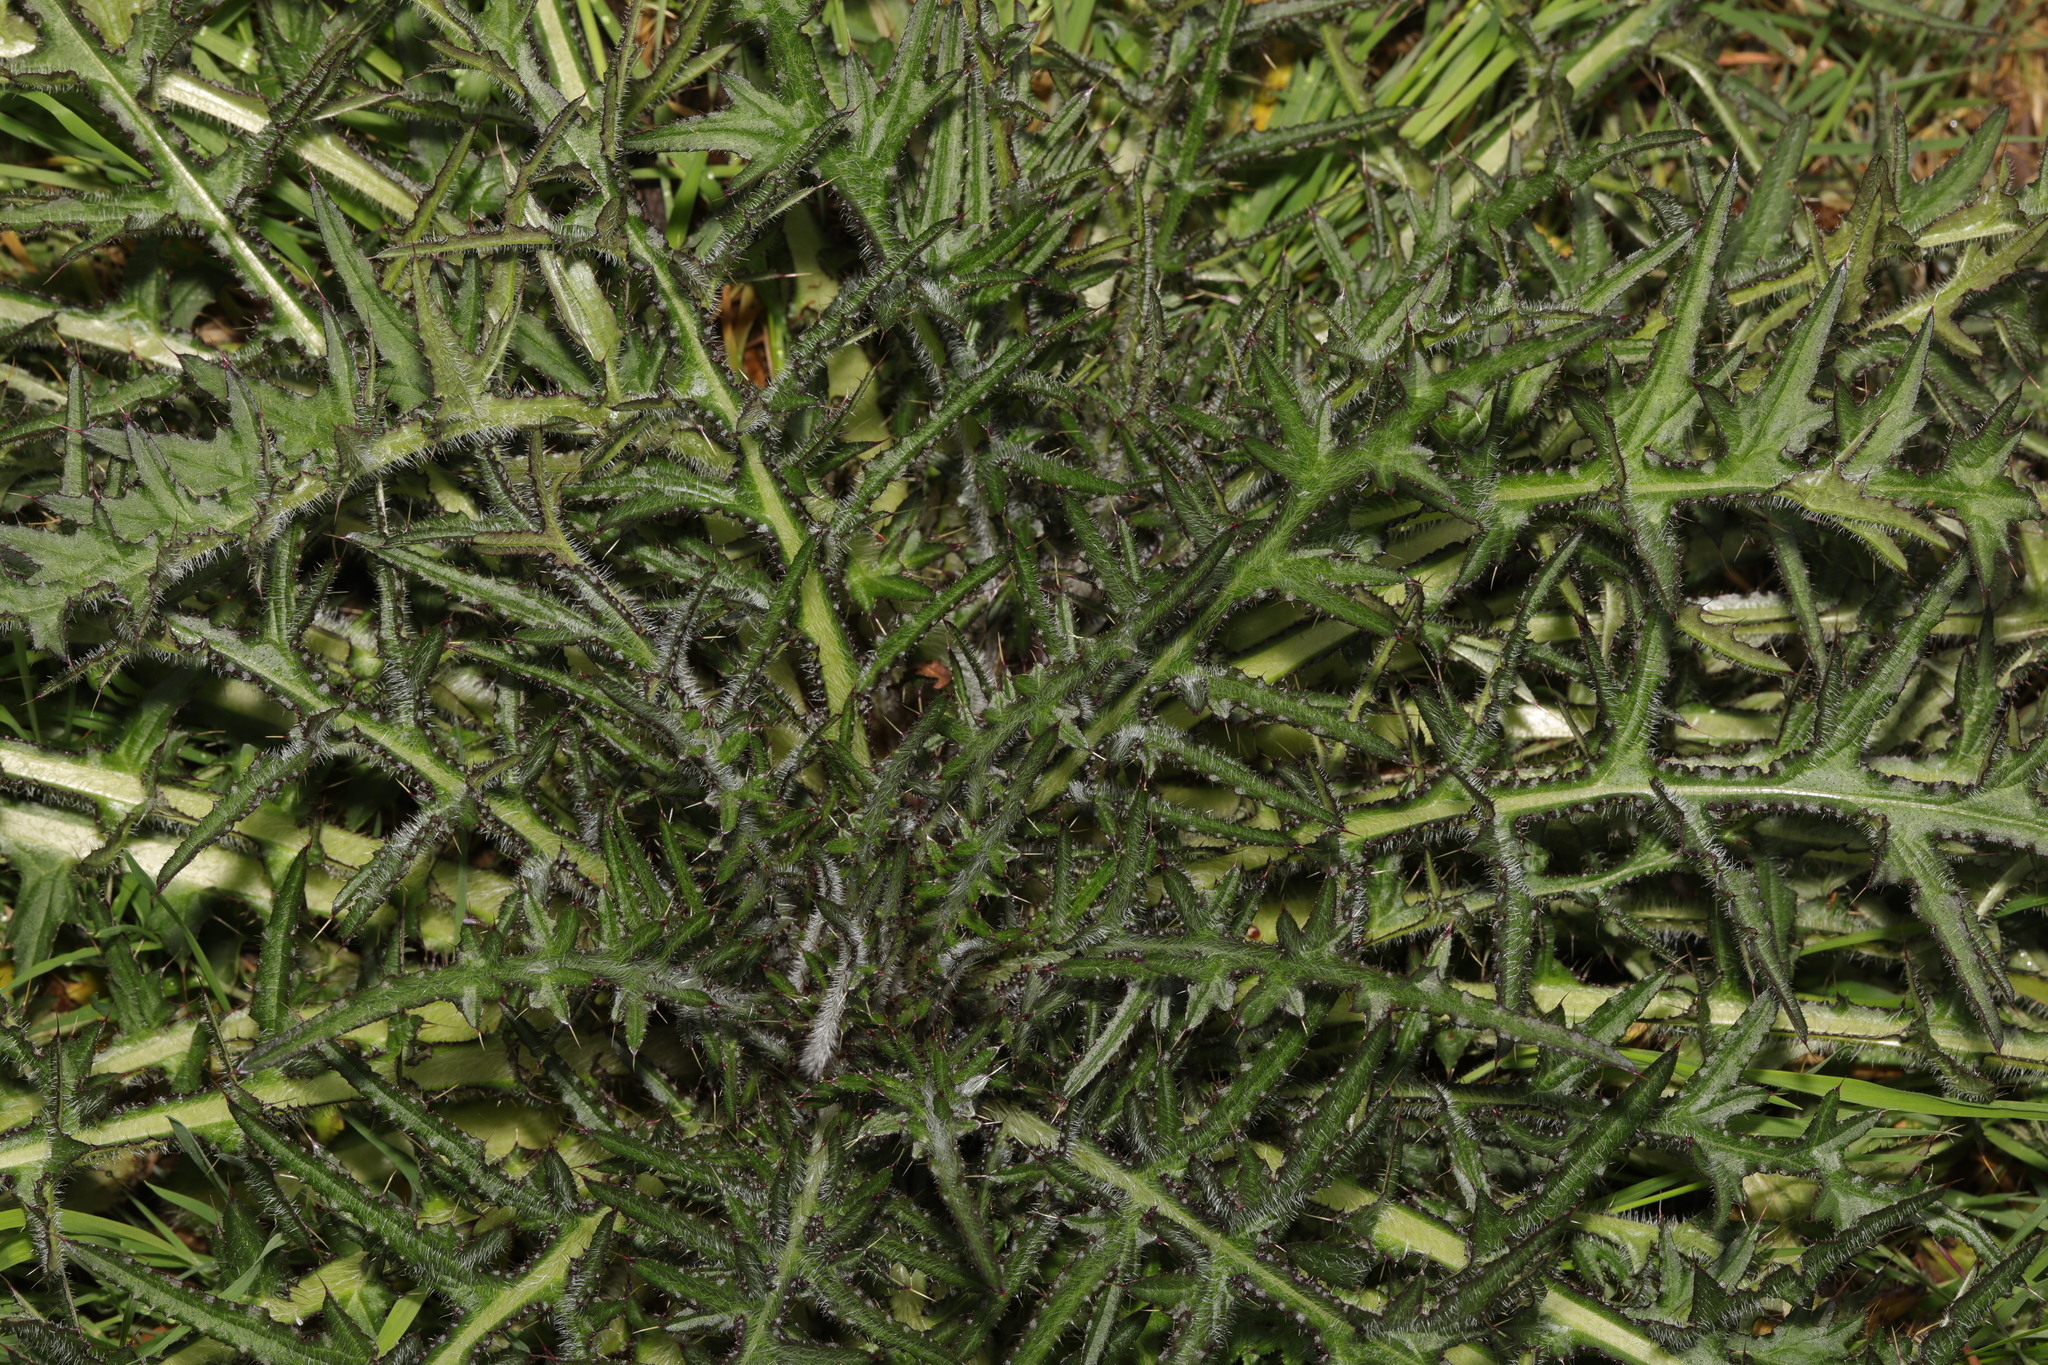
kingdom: Plantae
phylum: Tracheophyta
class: Magnoliopsida
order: Asterales
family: Asteraceae
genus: Cirsium
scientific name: Cirsium palustre
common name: Marsh thistle
